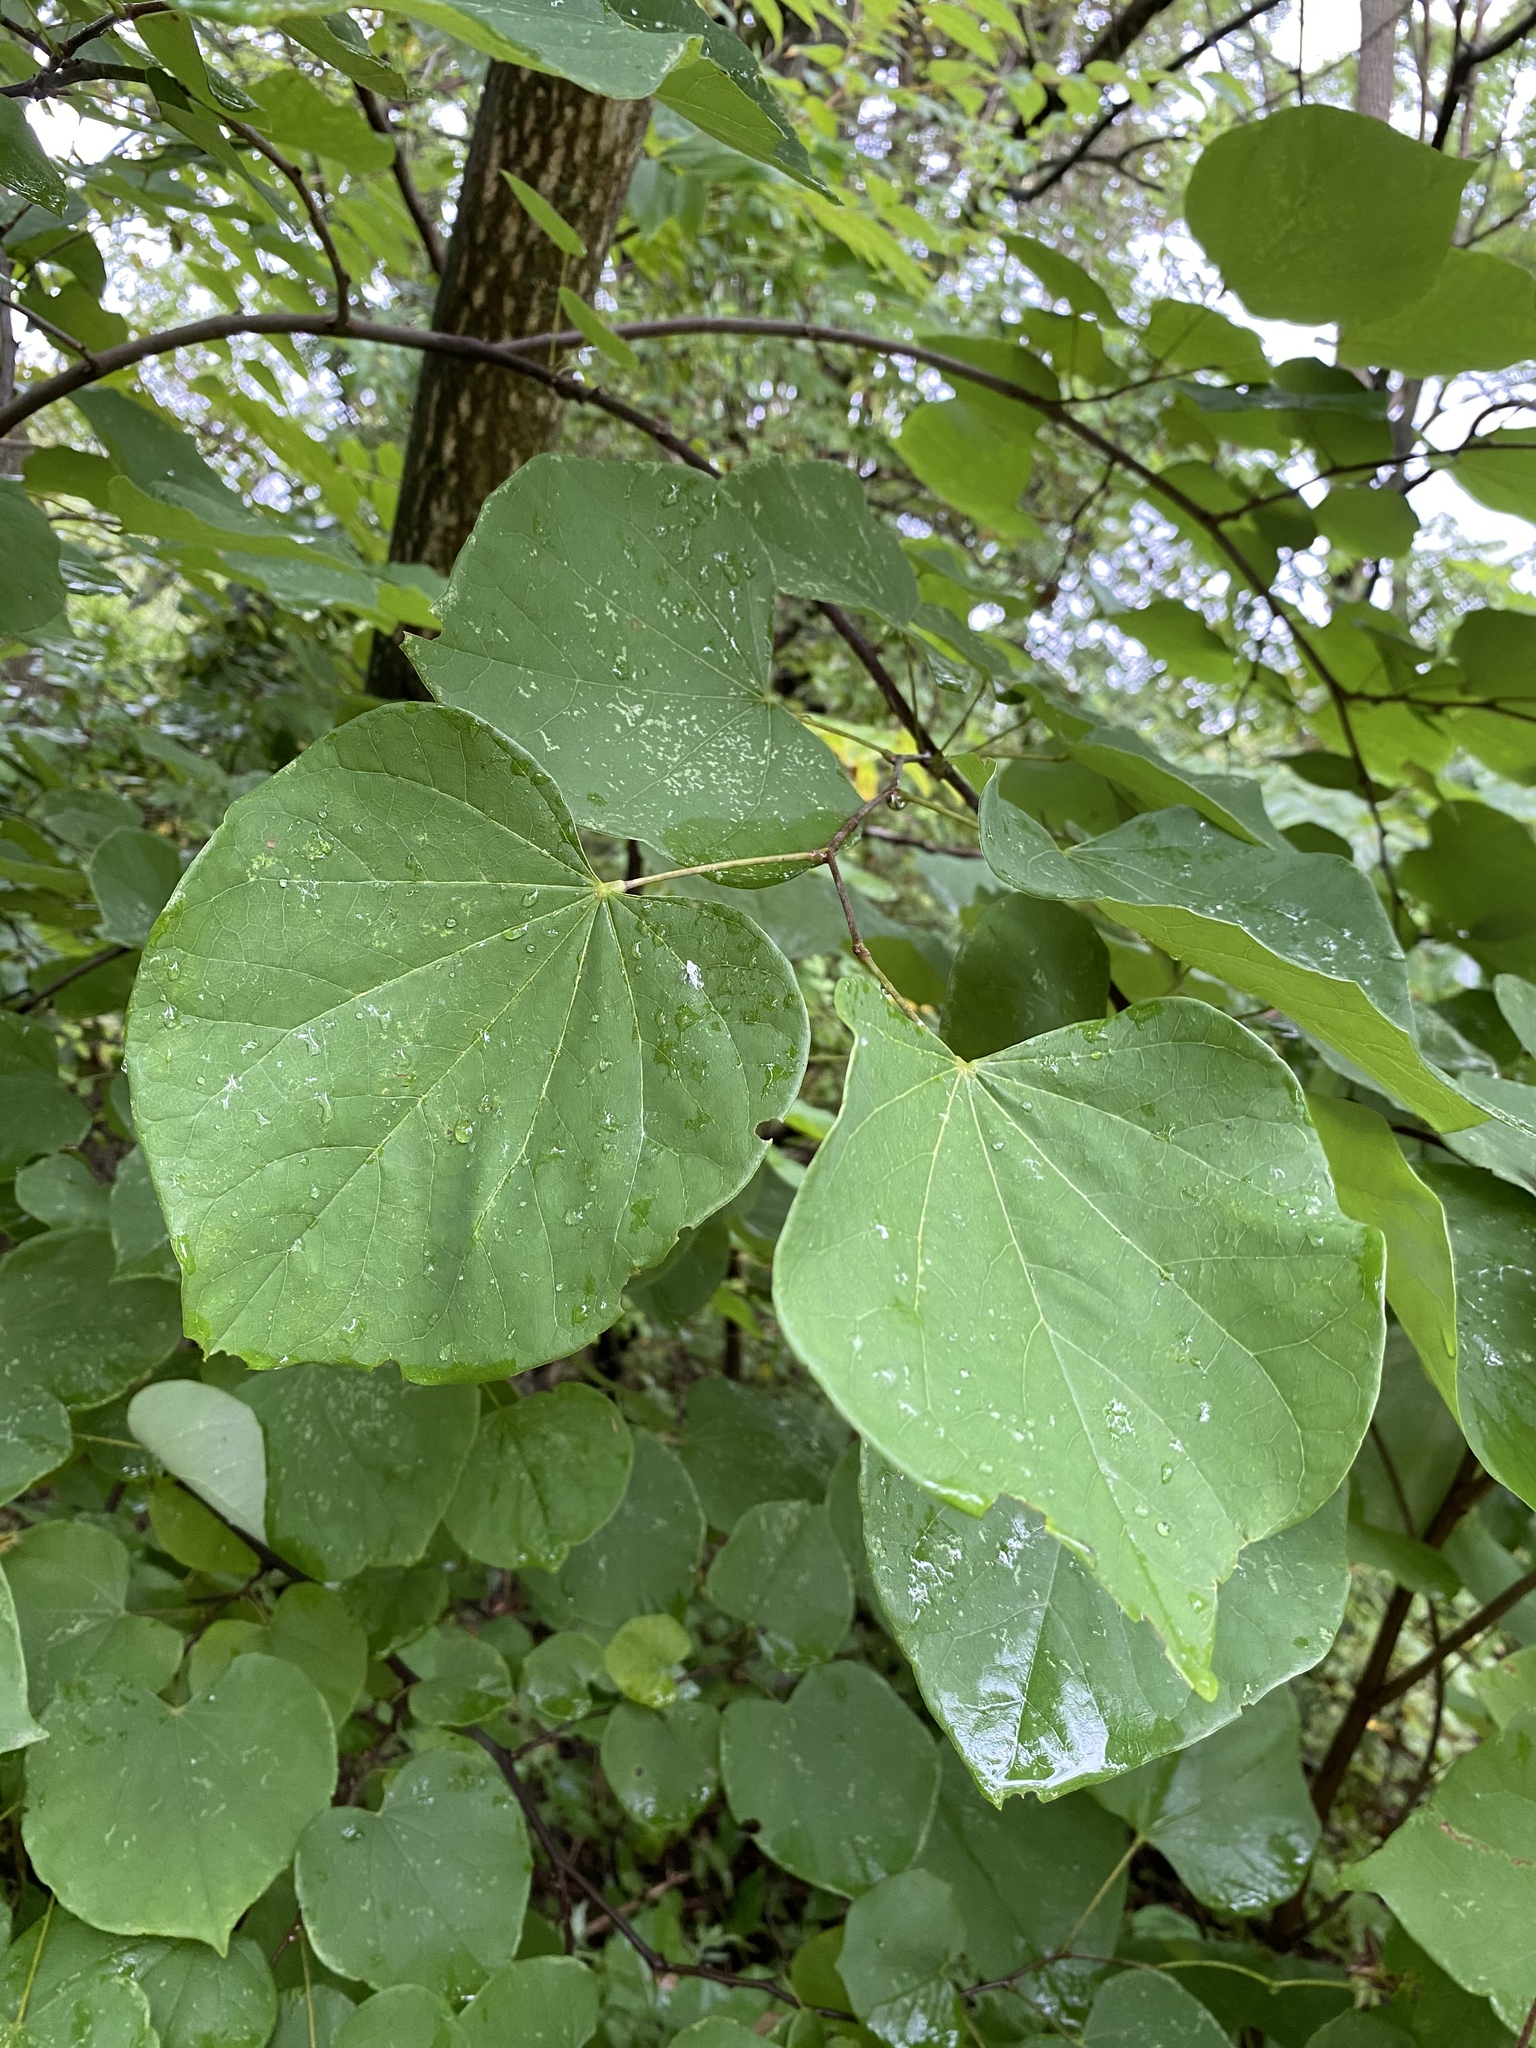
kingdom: Plantae
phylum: Tracheophyta
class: Magnoliopsida
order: Fabales
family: Fabaceae
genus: Cercis
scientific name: Cercis canadensis
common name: Eastern redbud
